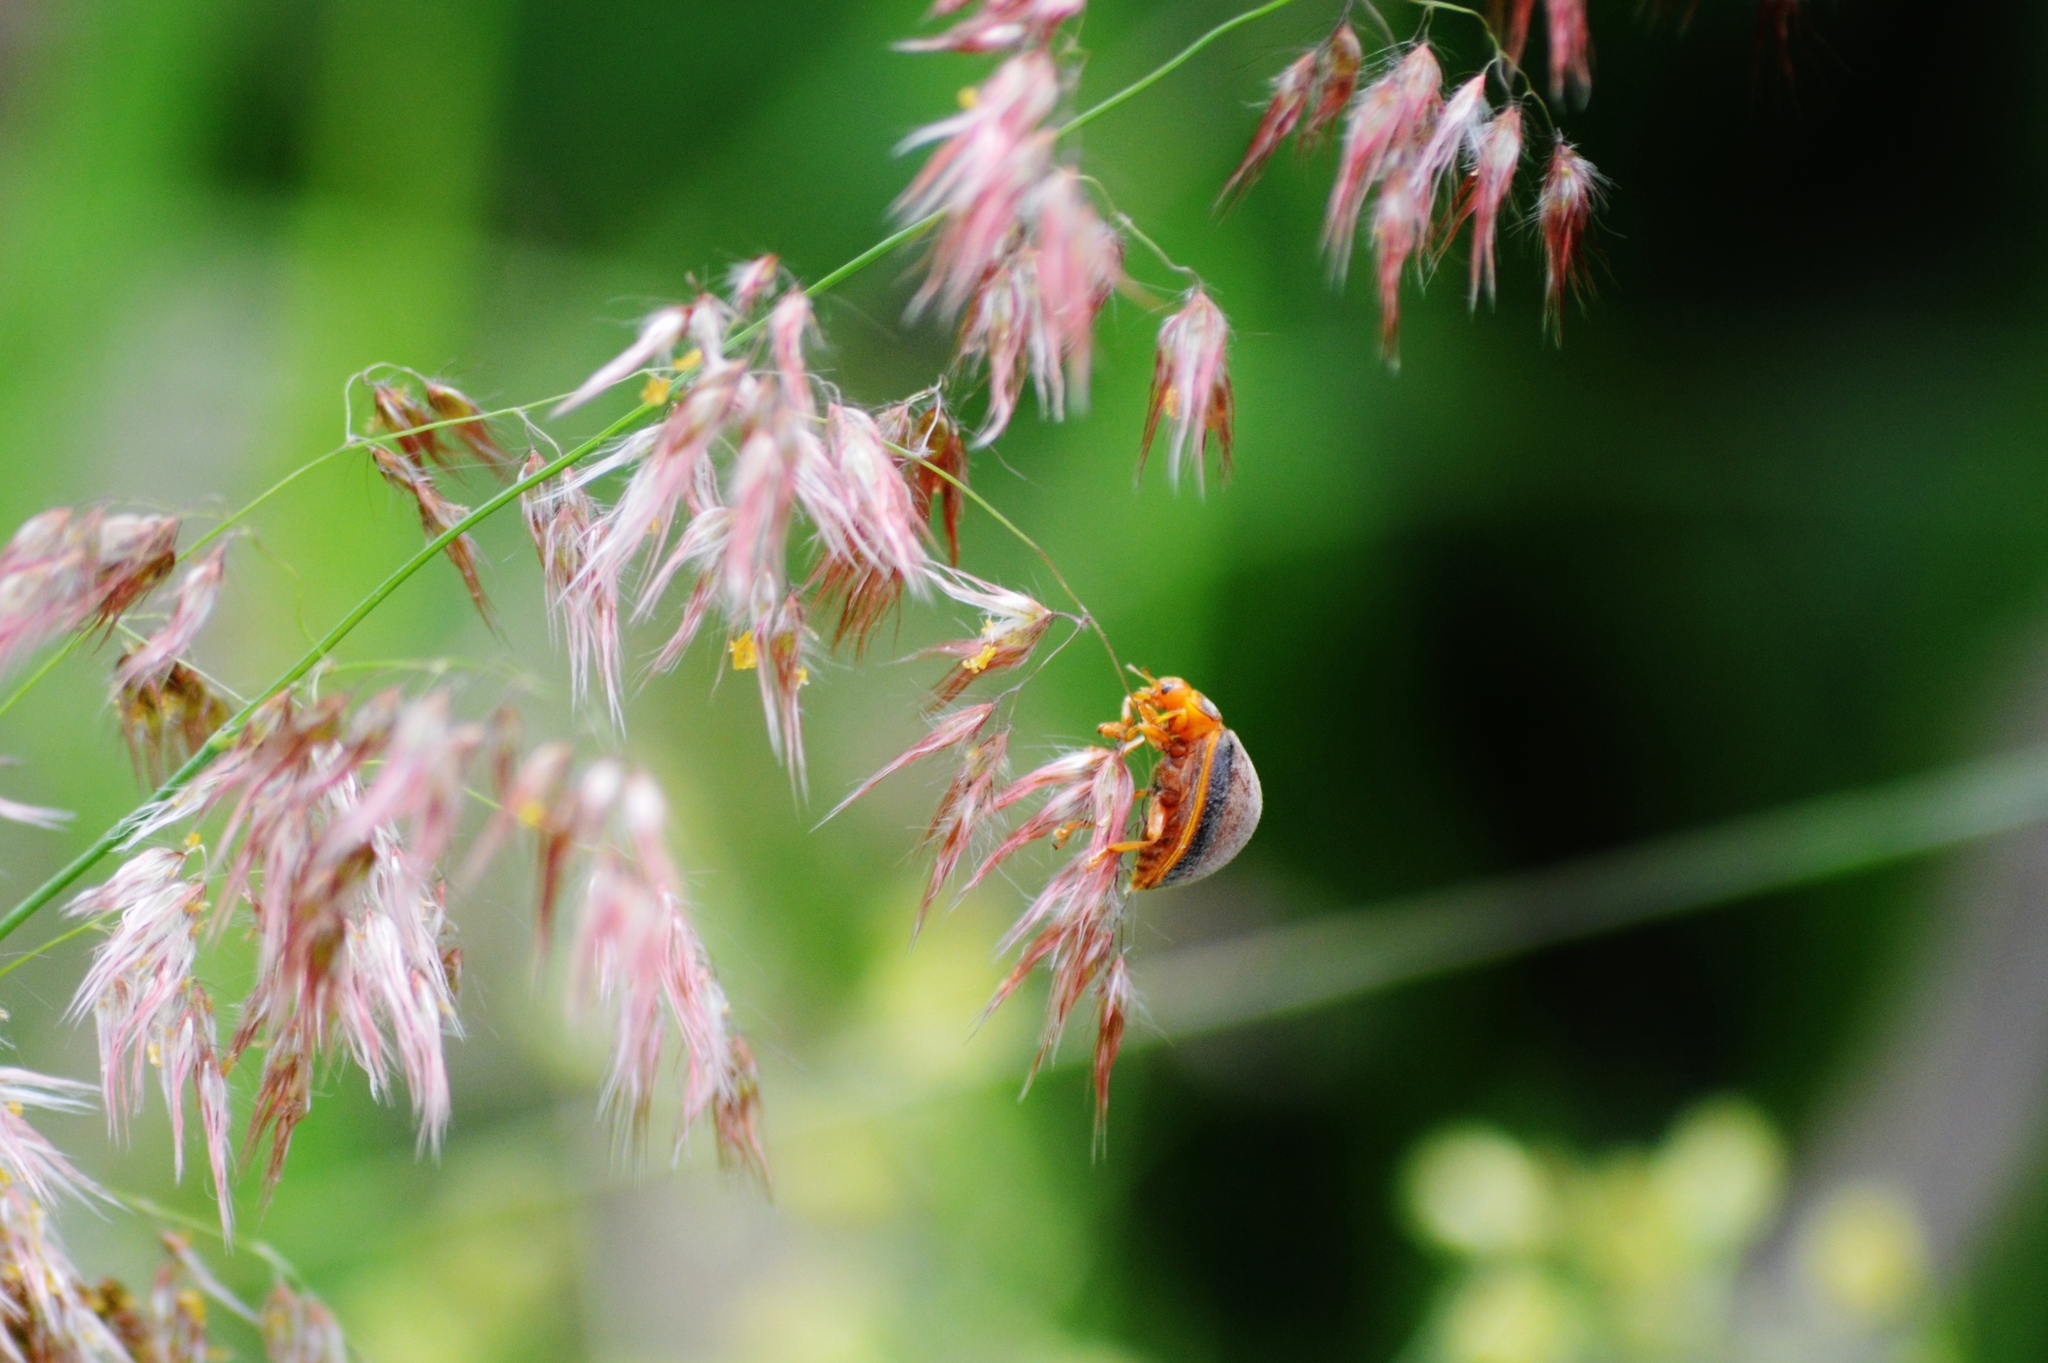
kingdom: Animalia
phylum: Arthropoda
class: Insecta
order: Coleoptera
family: Coccinellidae
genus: Epilachna
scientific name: Epilachna cacica
